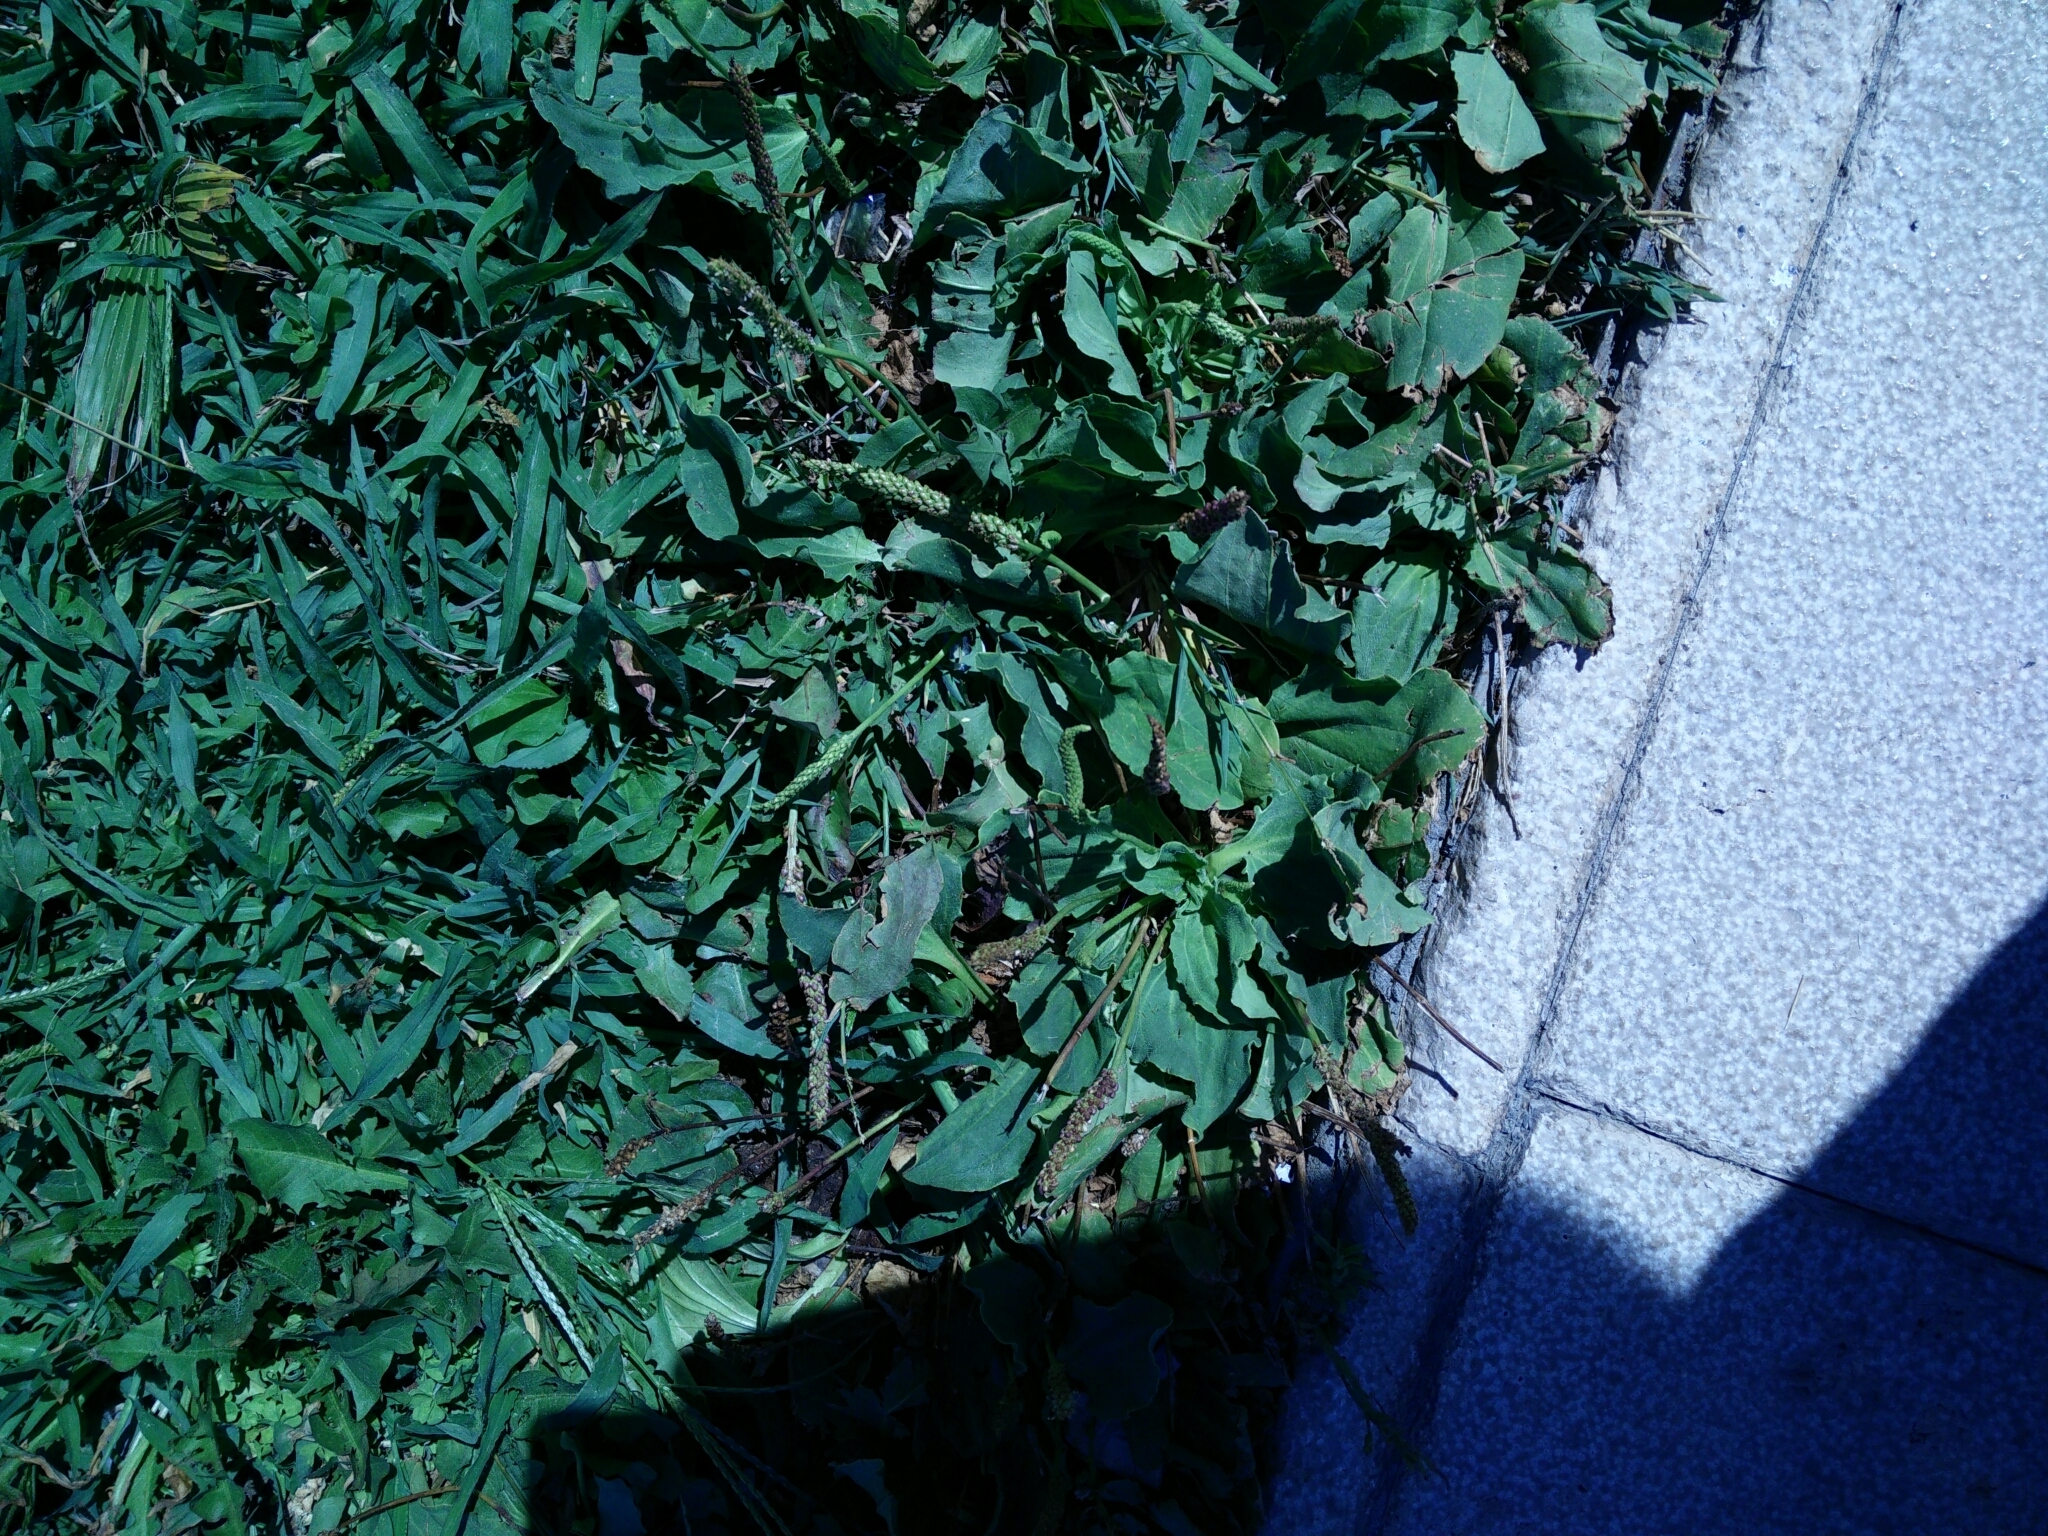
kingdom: Plantae
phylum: Tracheophyta
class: Magnoliopsida
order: Lamiales
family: Plantaginaceae
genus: Plantago
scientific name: Plantago major
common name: Common plantain
